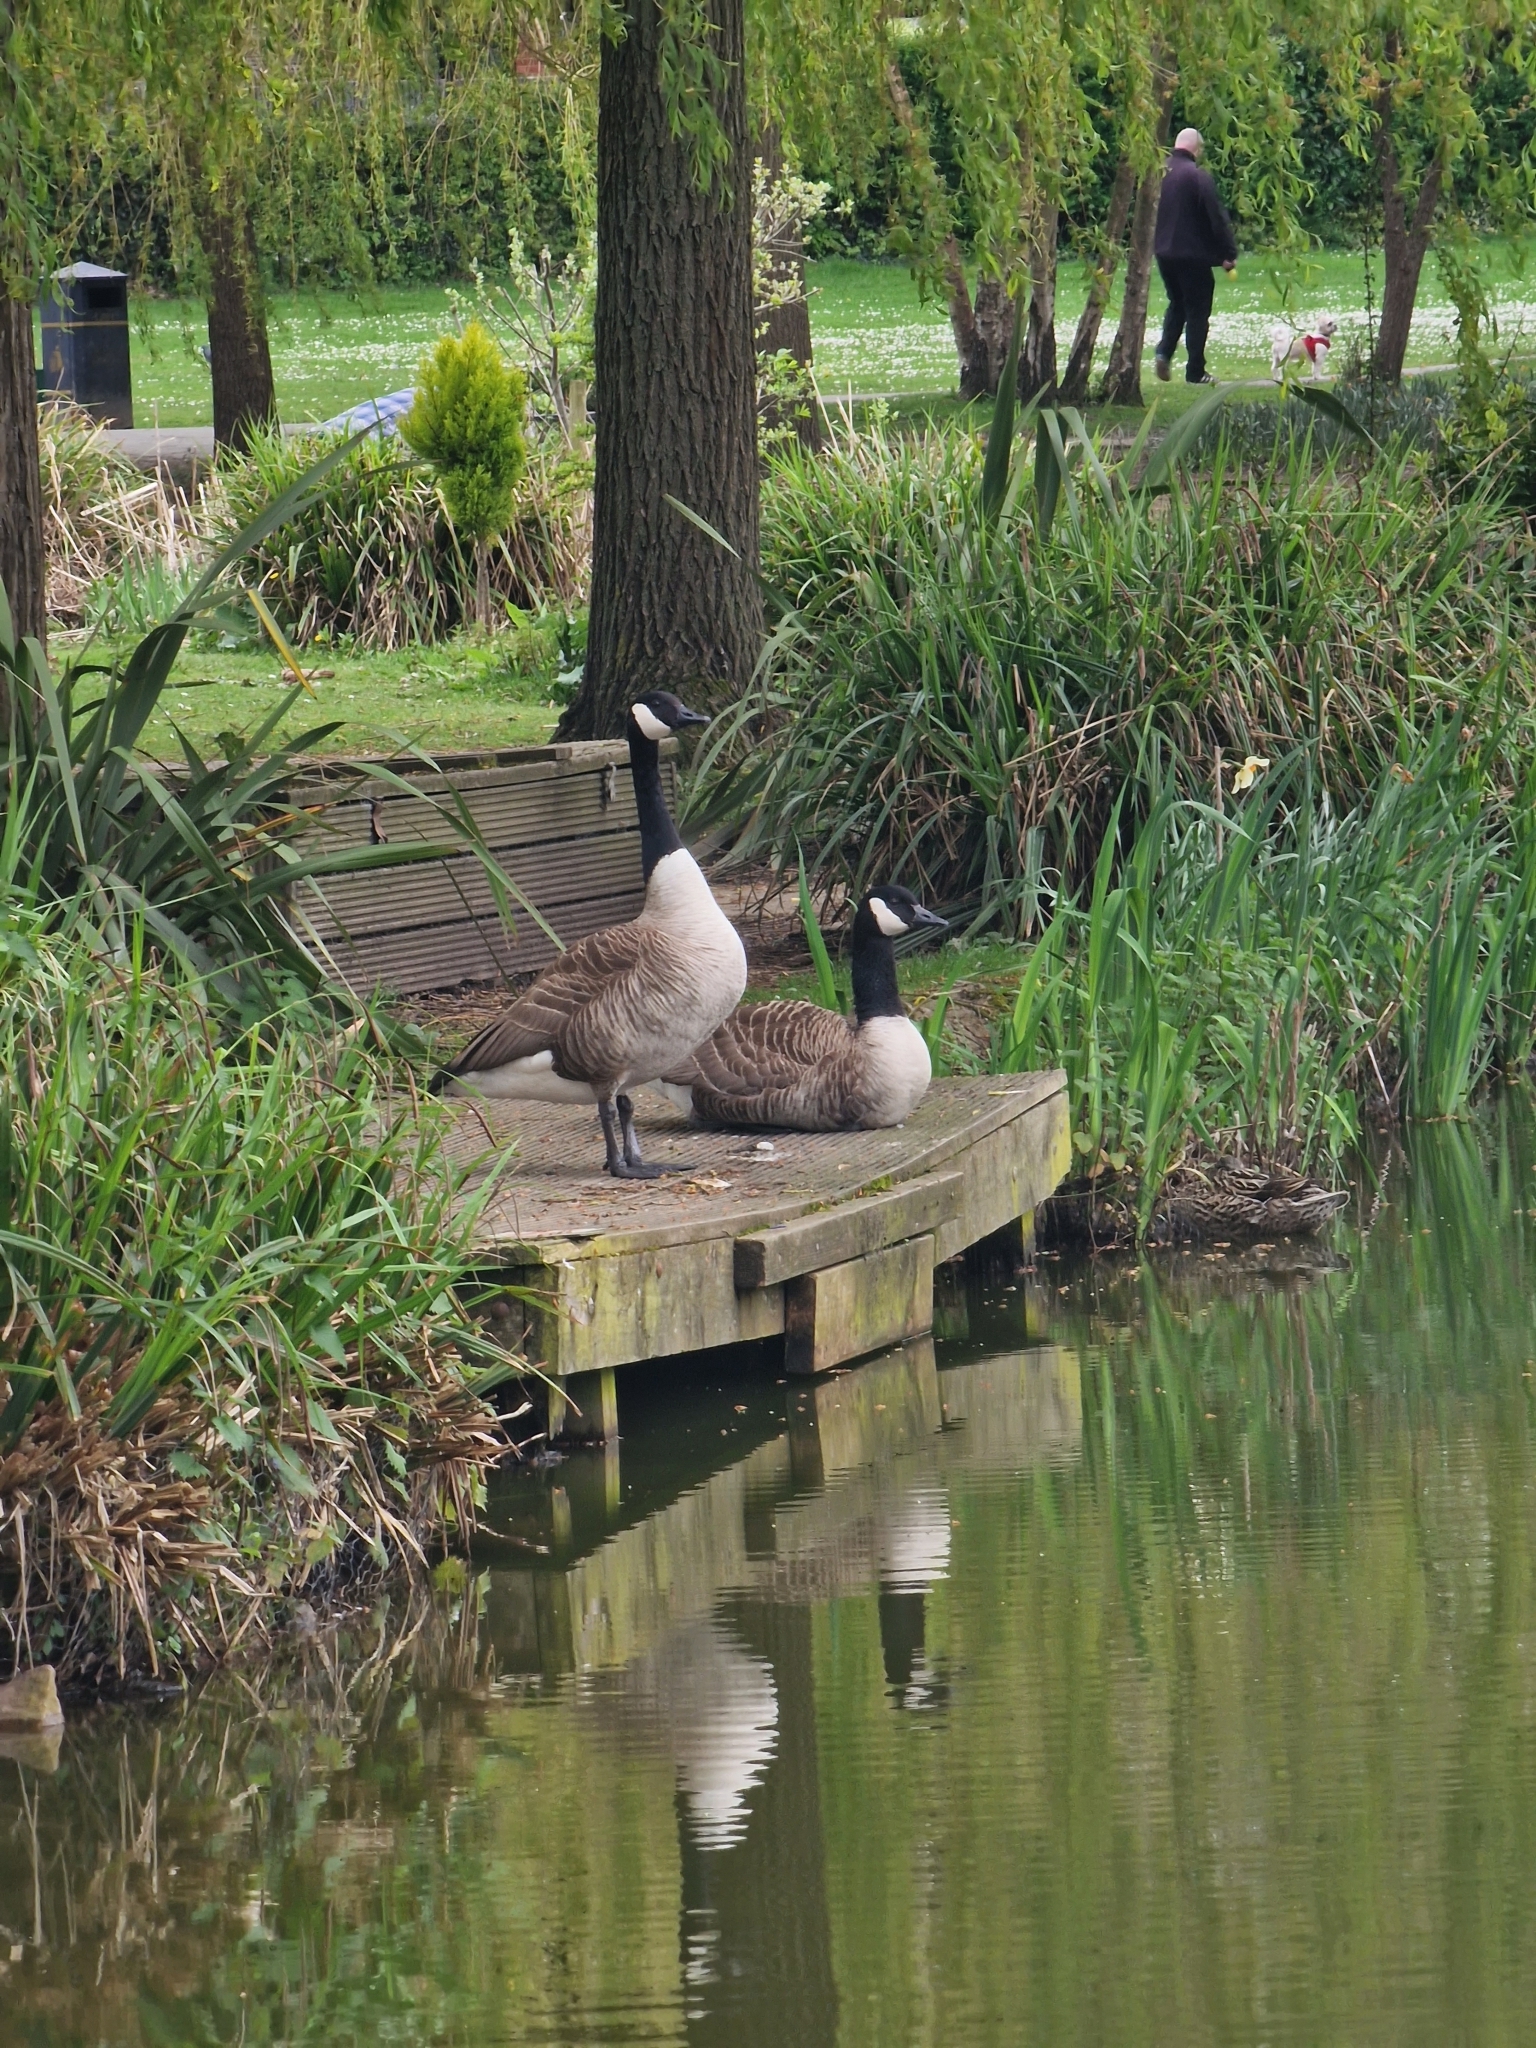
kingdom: Animalia
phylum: Chordata
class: Aves
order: Anseriformes
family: Anatidae
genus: Branta
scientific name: Branta canadensis
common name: Canada goose
